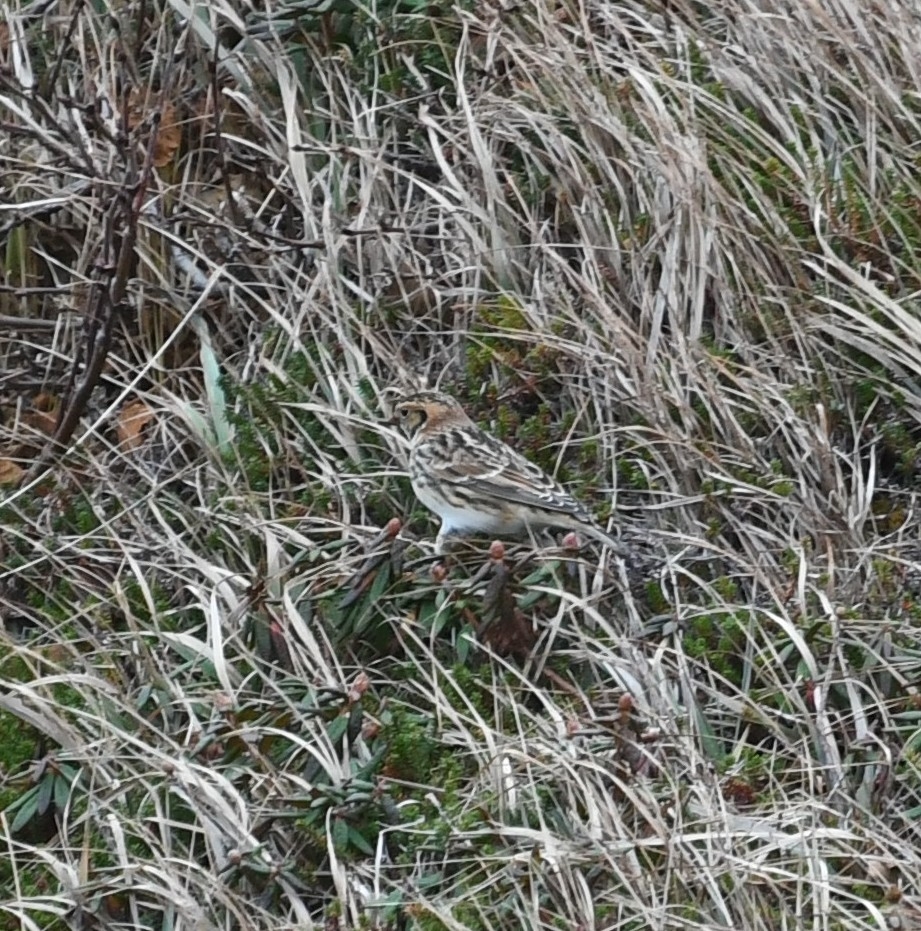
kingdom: Animalia
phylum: Chordata
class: Aves
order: Passeriformes
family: Calcariidae
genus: Calcarius
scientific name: Calcarius lapponicus
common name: Lapland longspur
